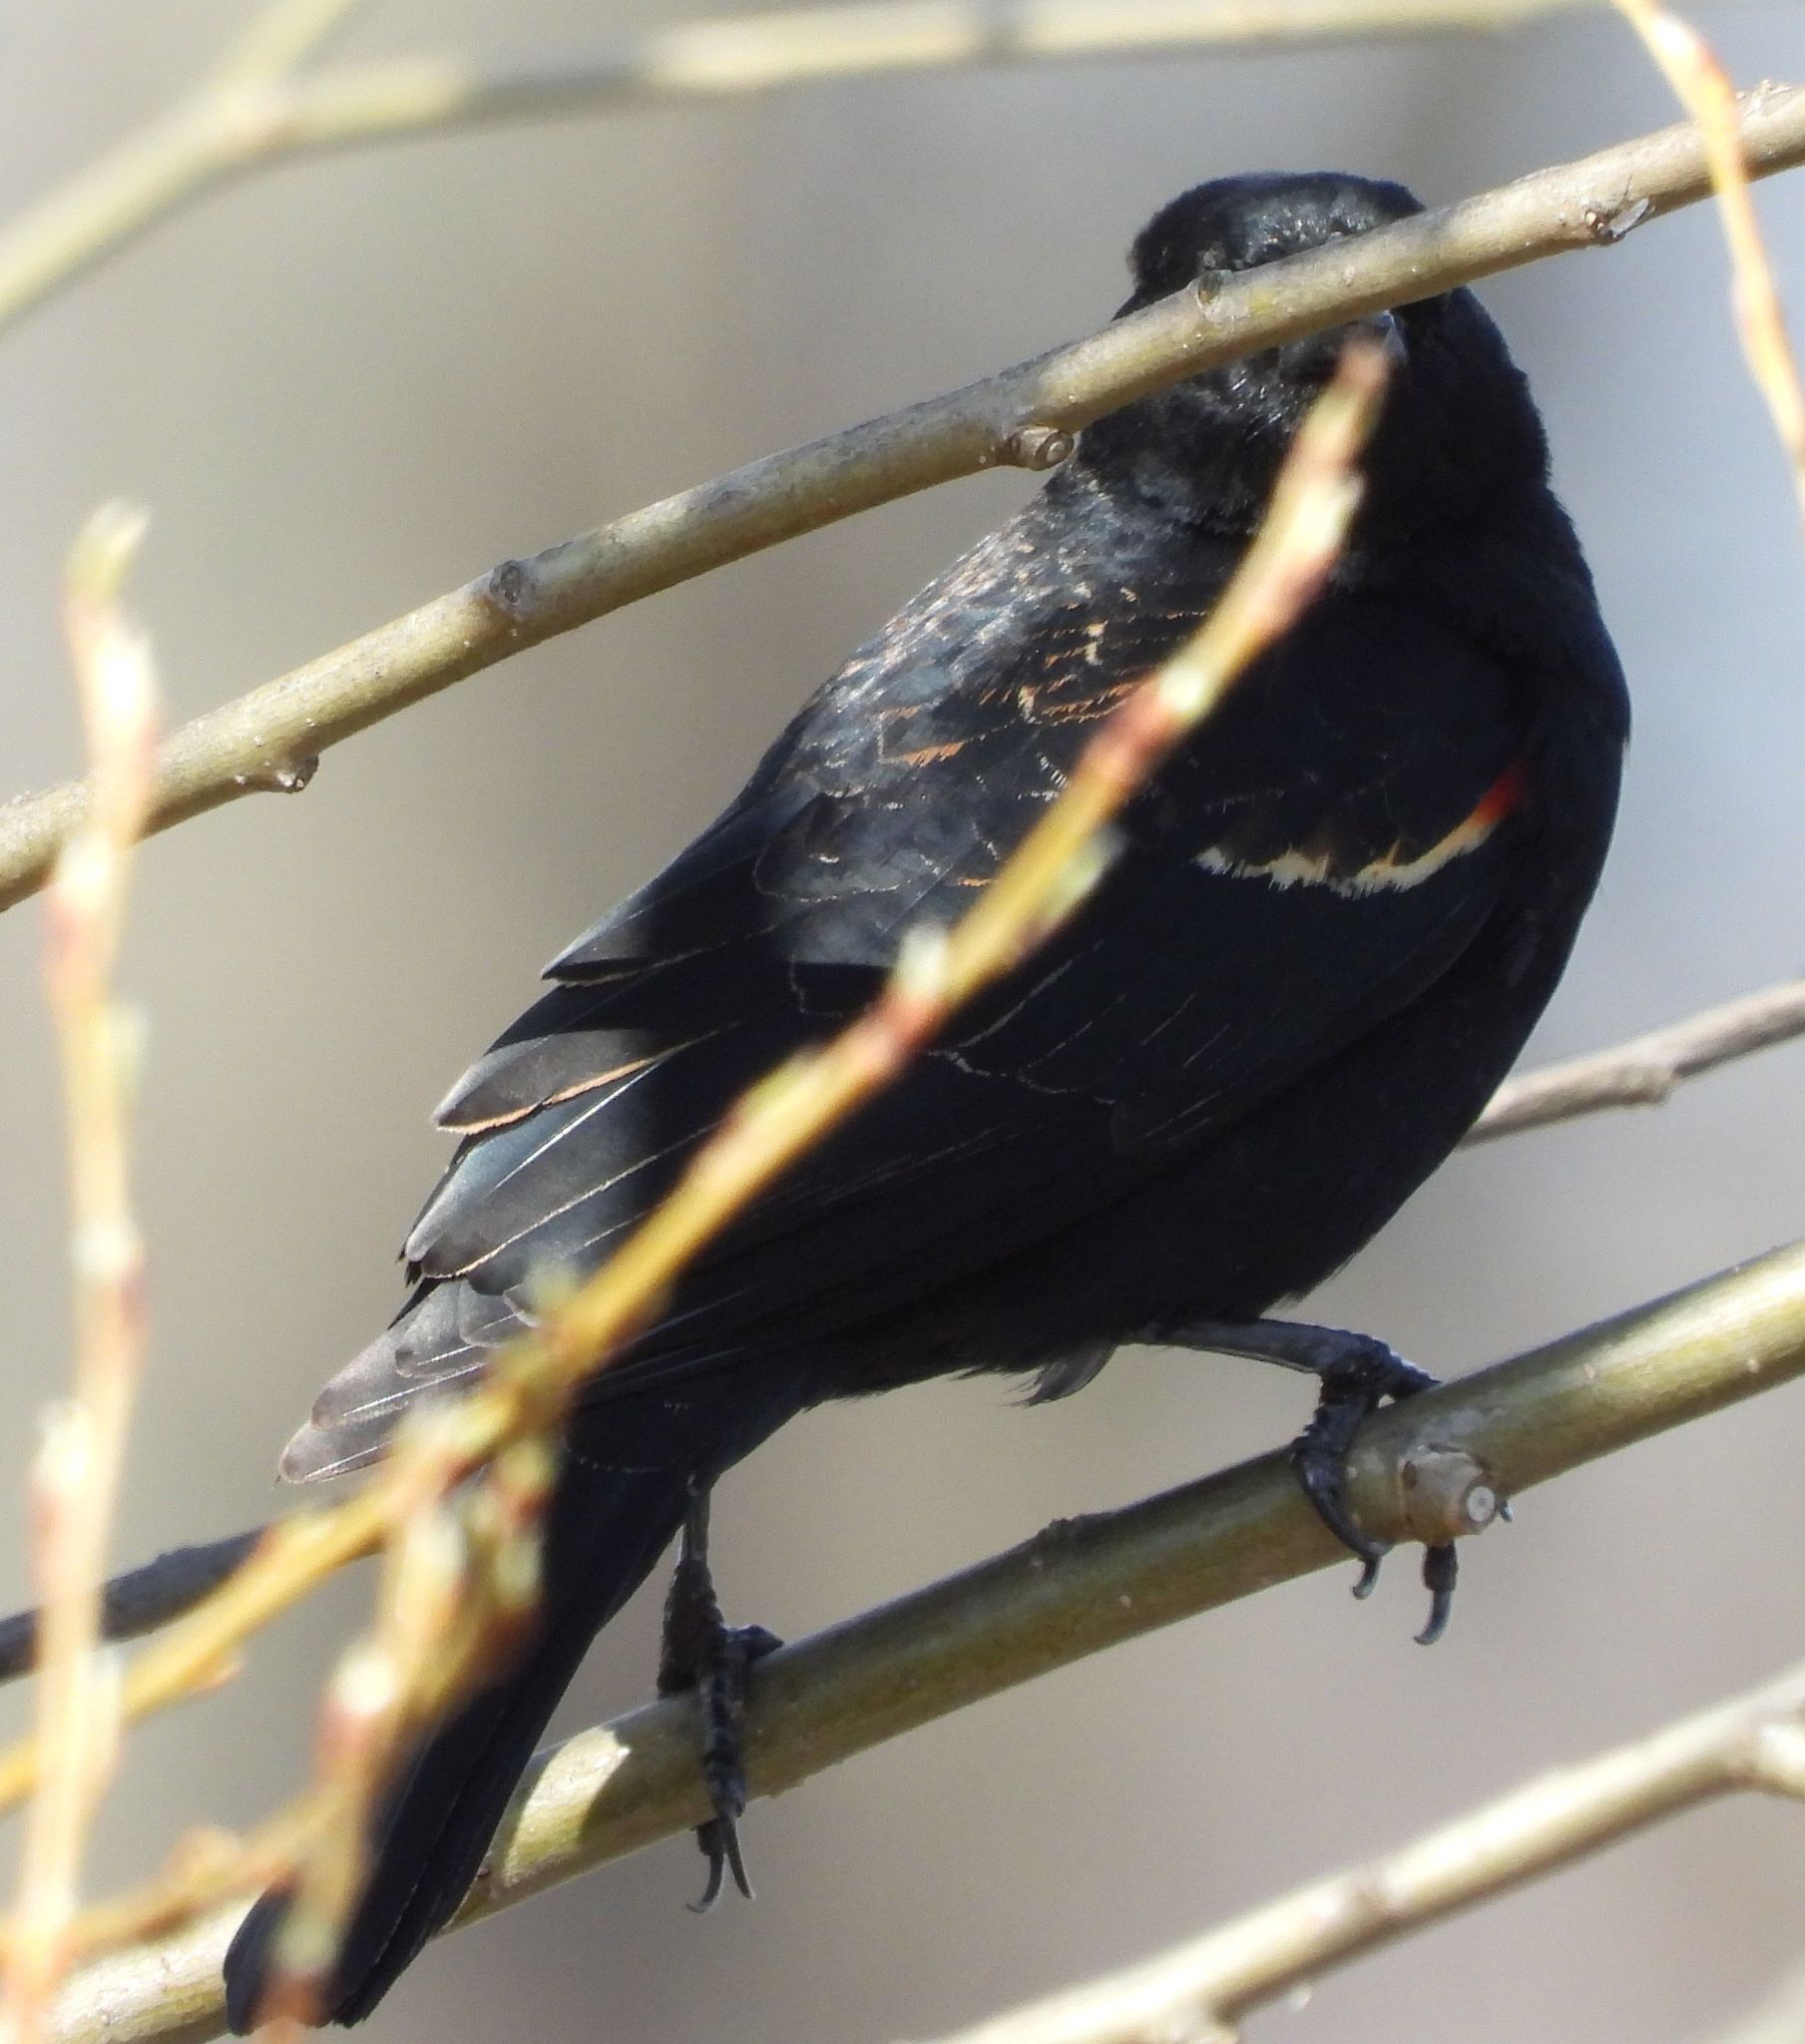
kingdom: Animalia
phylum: Chordata
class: Aves
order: Passeriformes
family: Icteridae
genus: Agelaius
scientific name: Agelaius phoeniceus
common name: Red-winged blackbird
